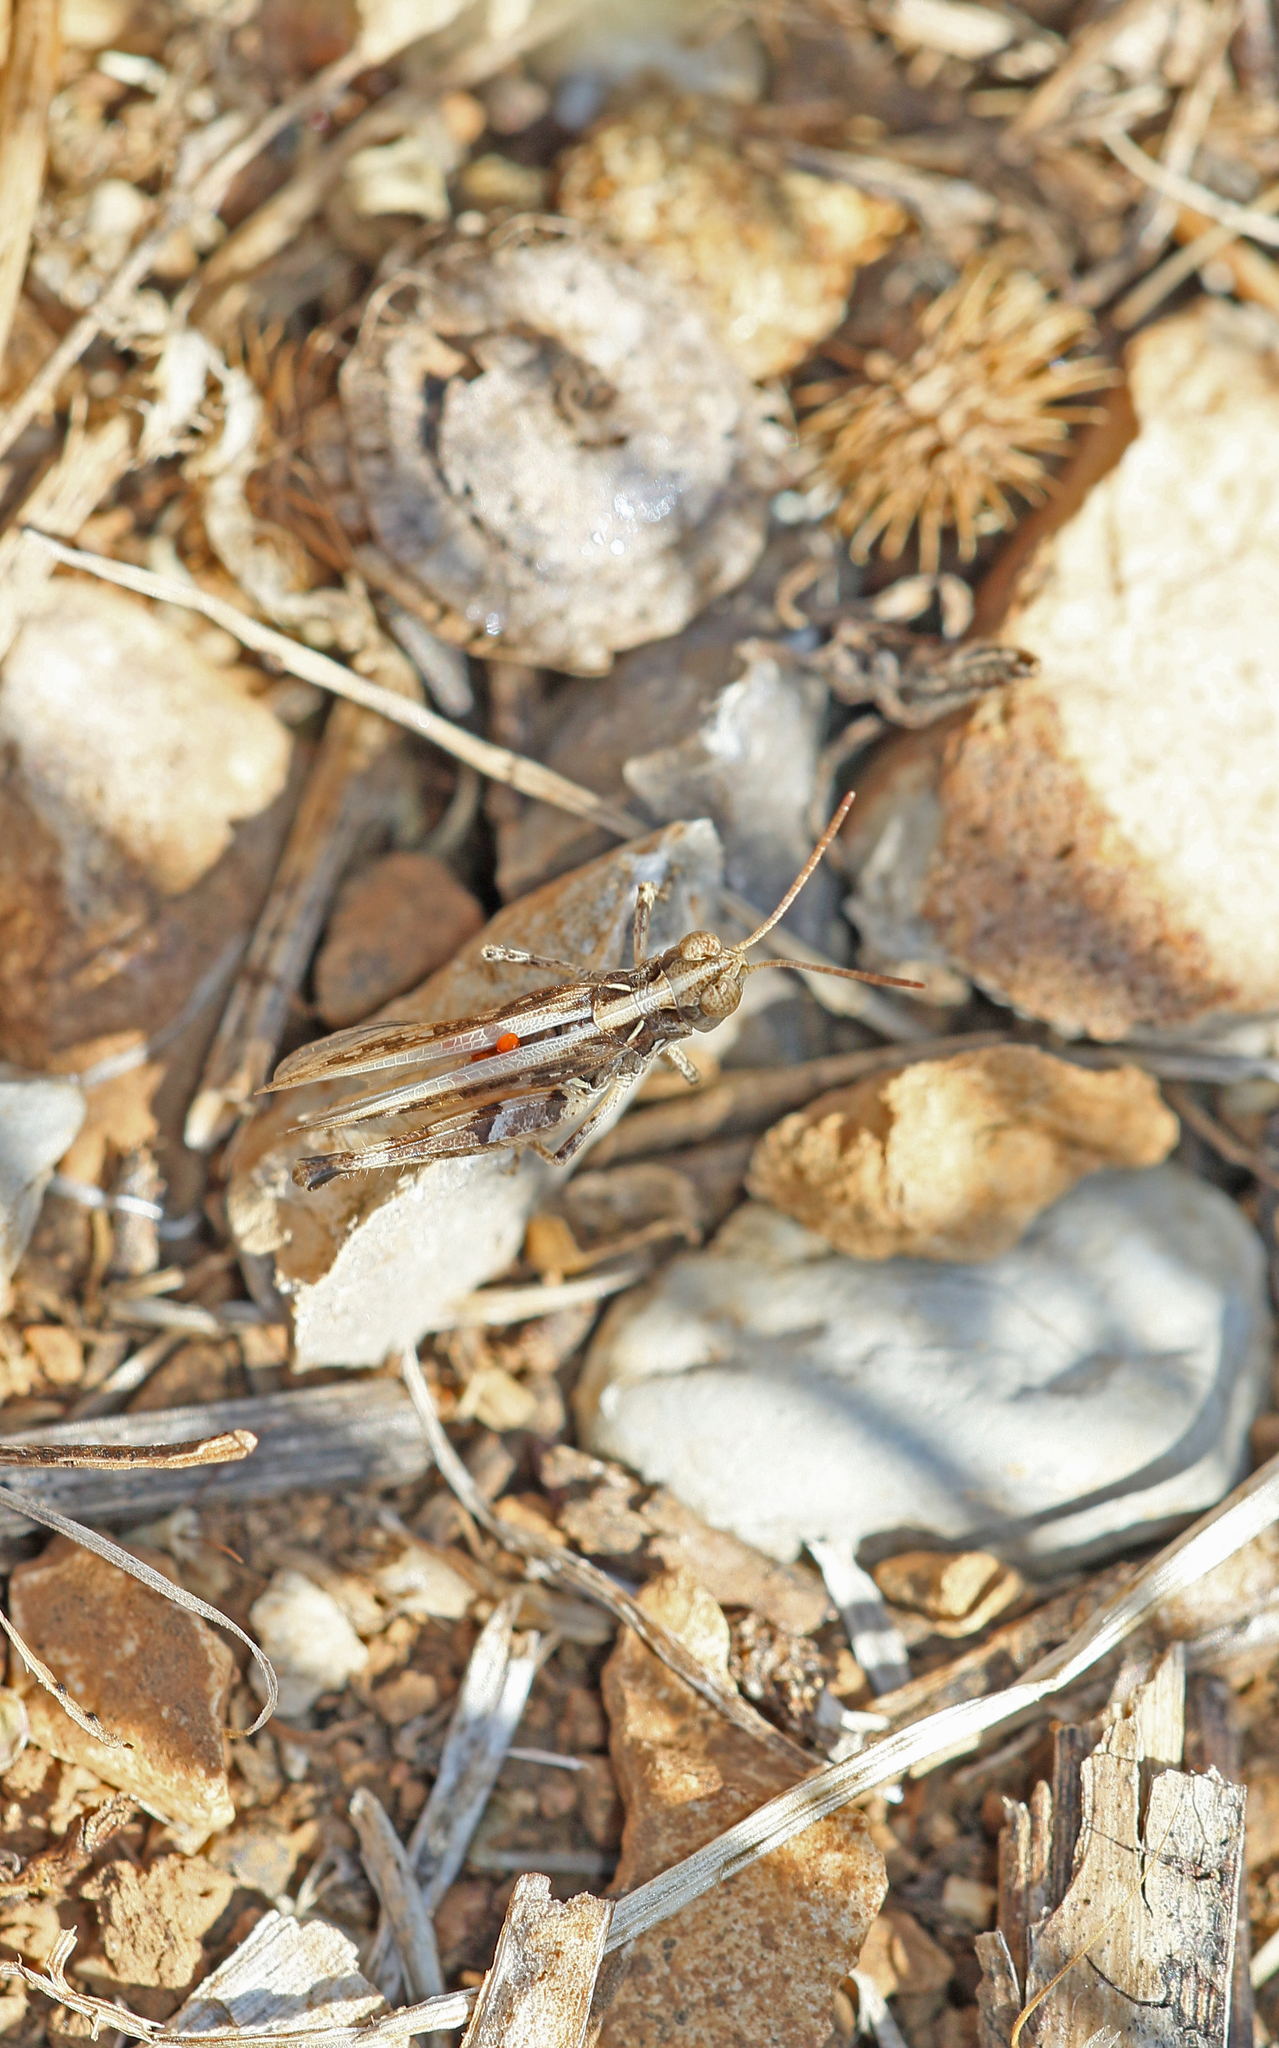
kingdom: Animalia
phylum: Arthropoda
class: Insecta
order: Orthoptera
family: Acrididae
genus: Dociostaurus
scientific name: Dociostaurus jagoi
